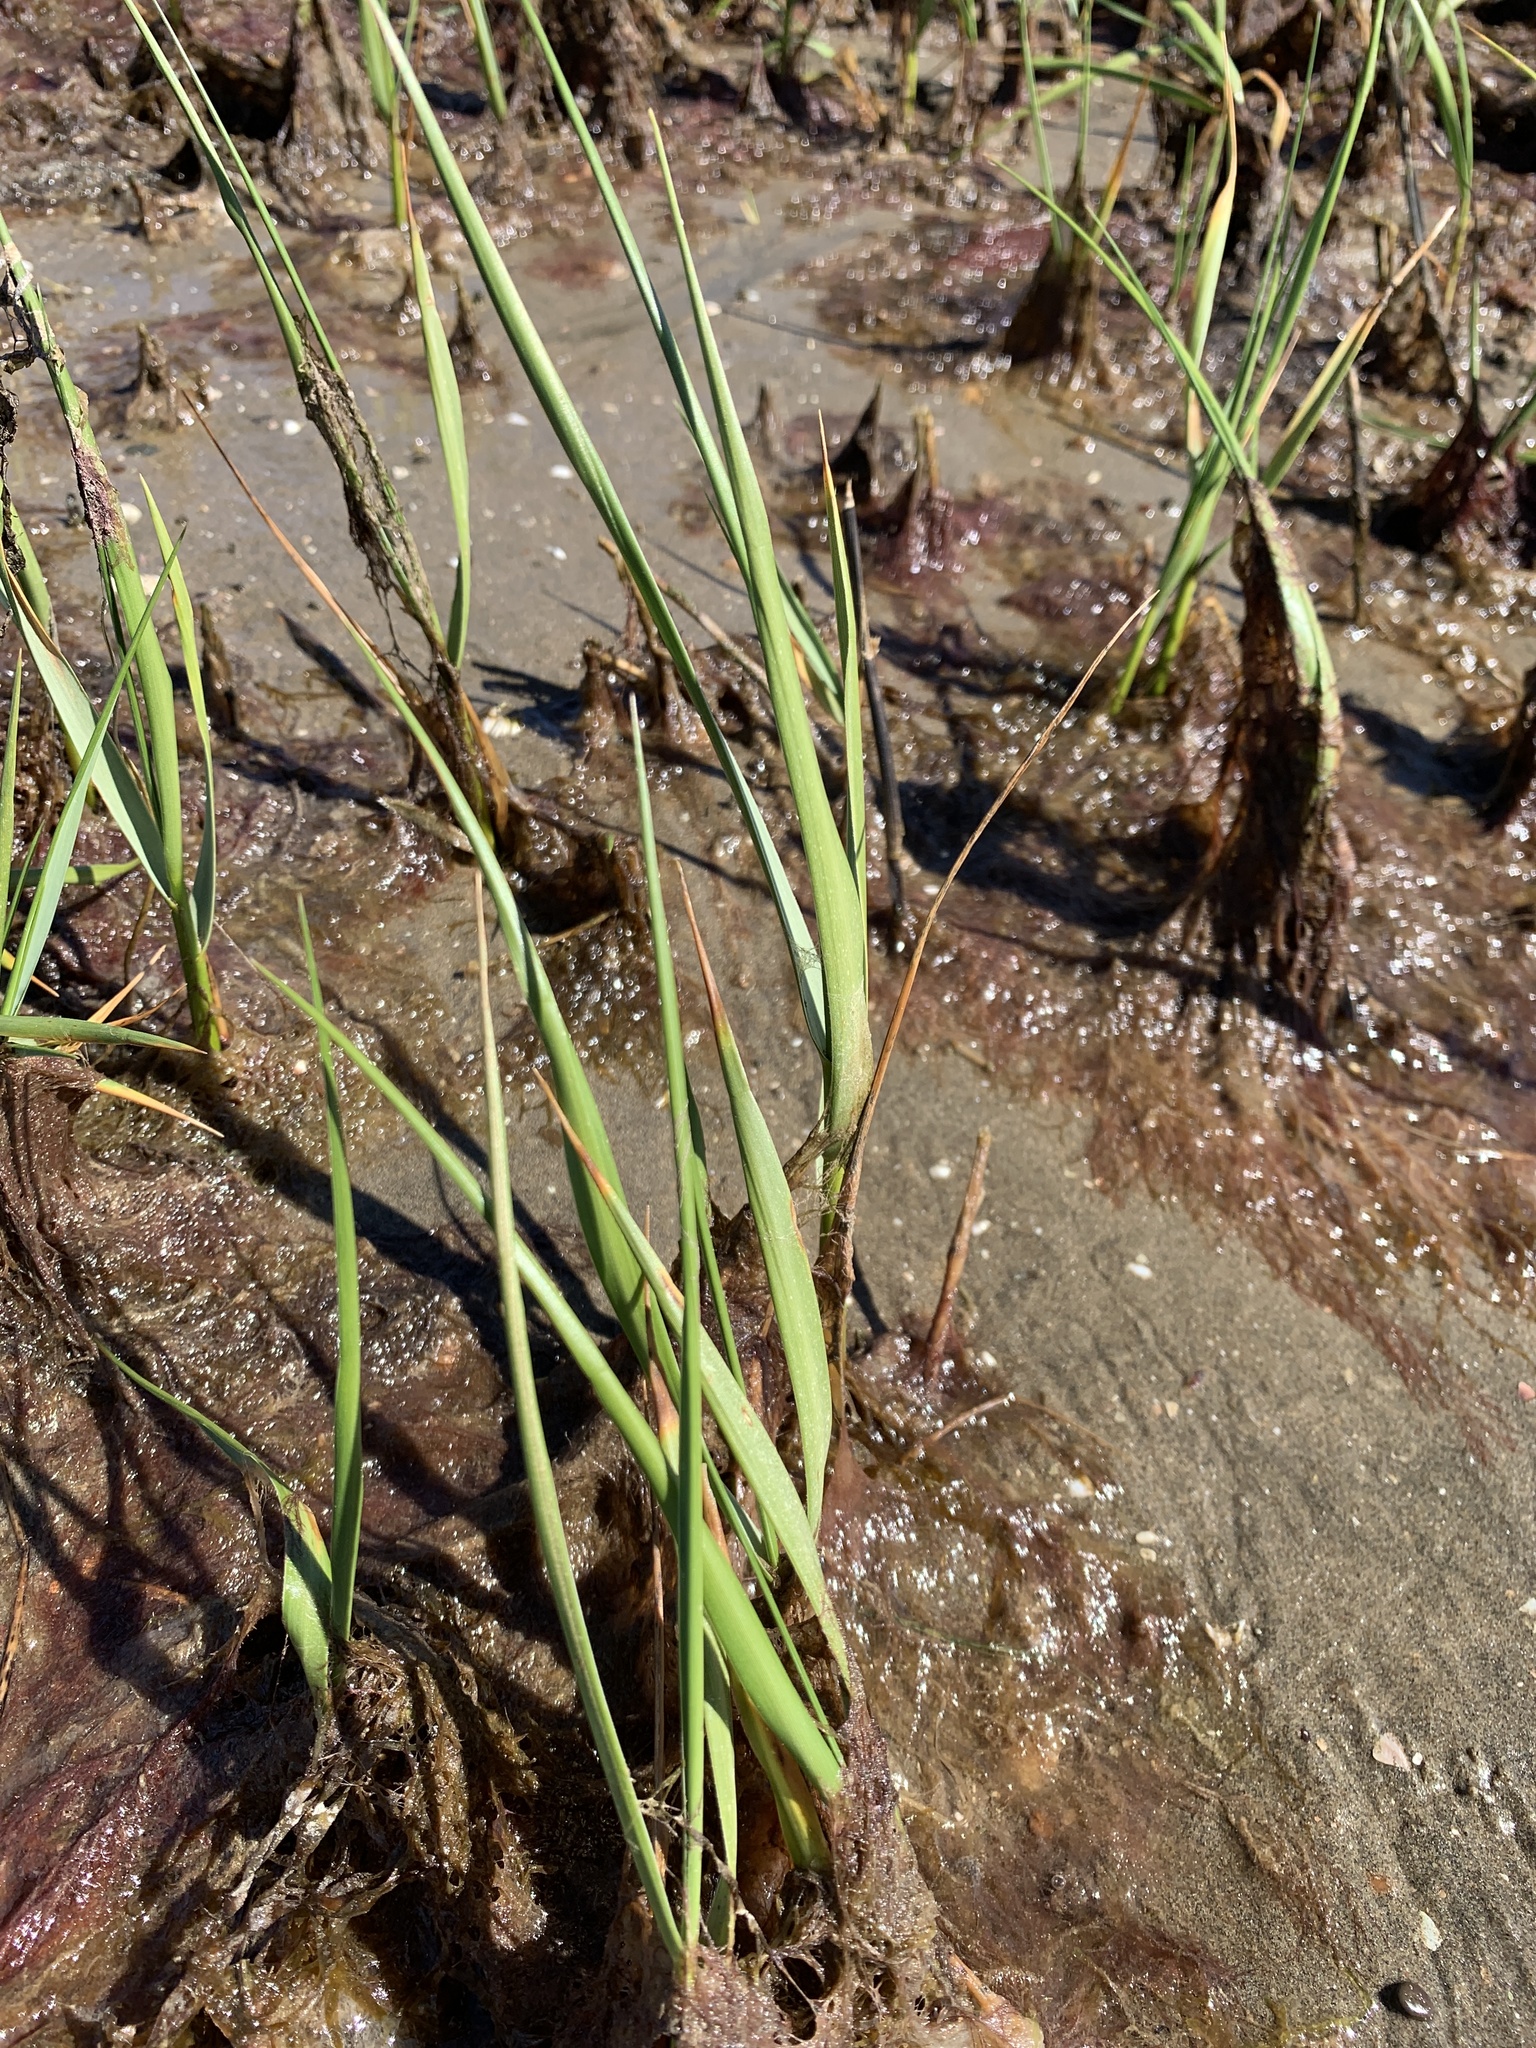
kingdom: Plantae
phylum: Tracheophyta
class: Liliopsida
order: Poales
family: Poaceae
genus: Sporobolus
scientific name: Sporobolus alterniflorus
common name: Atlantic cordgrass
